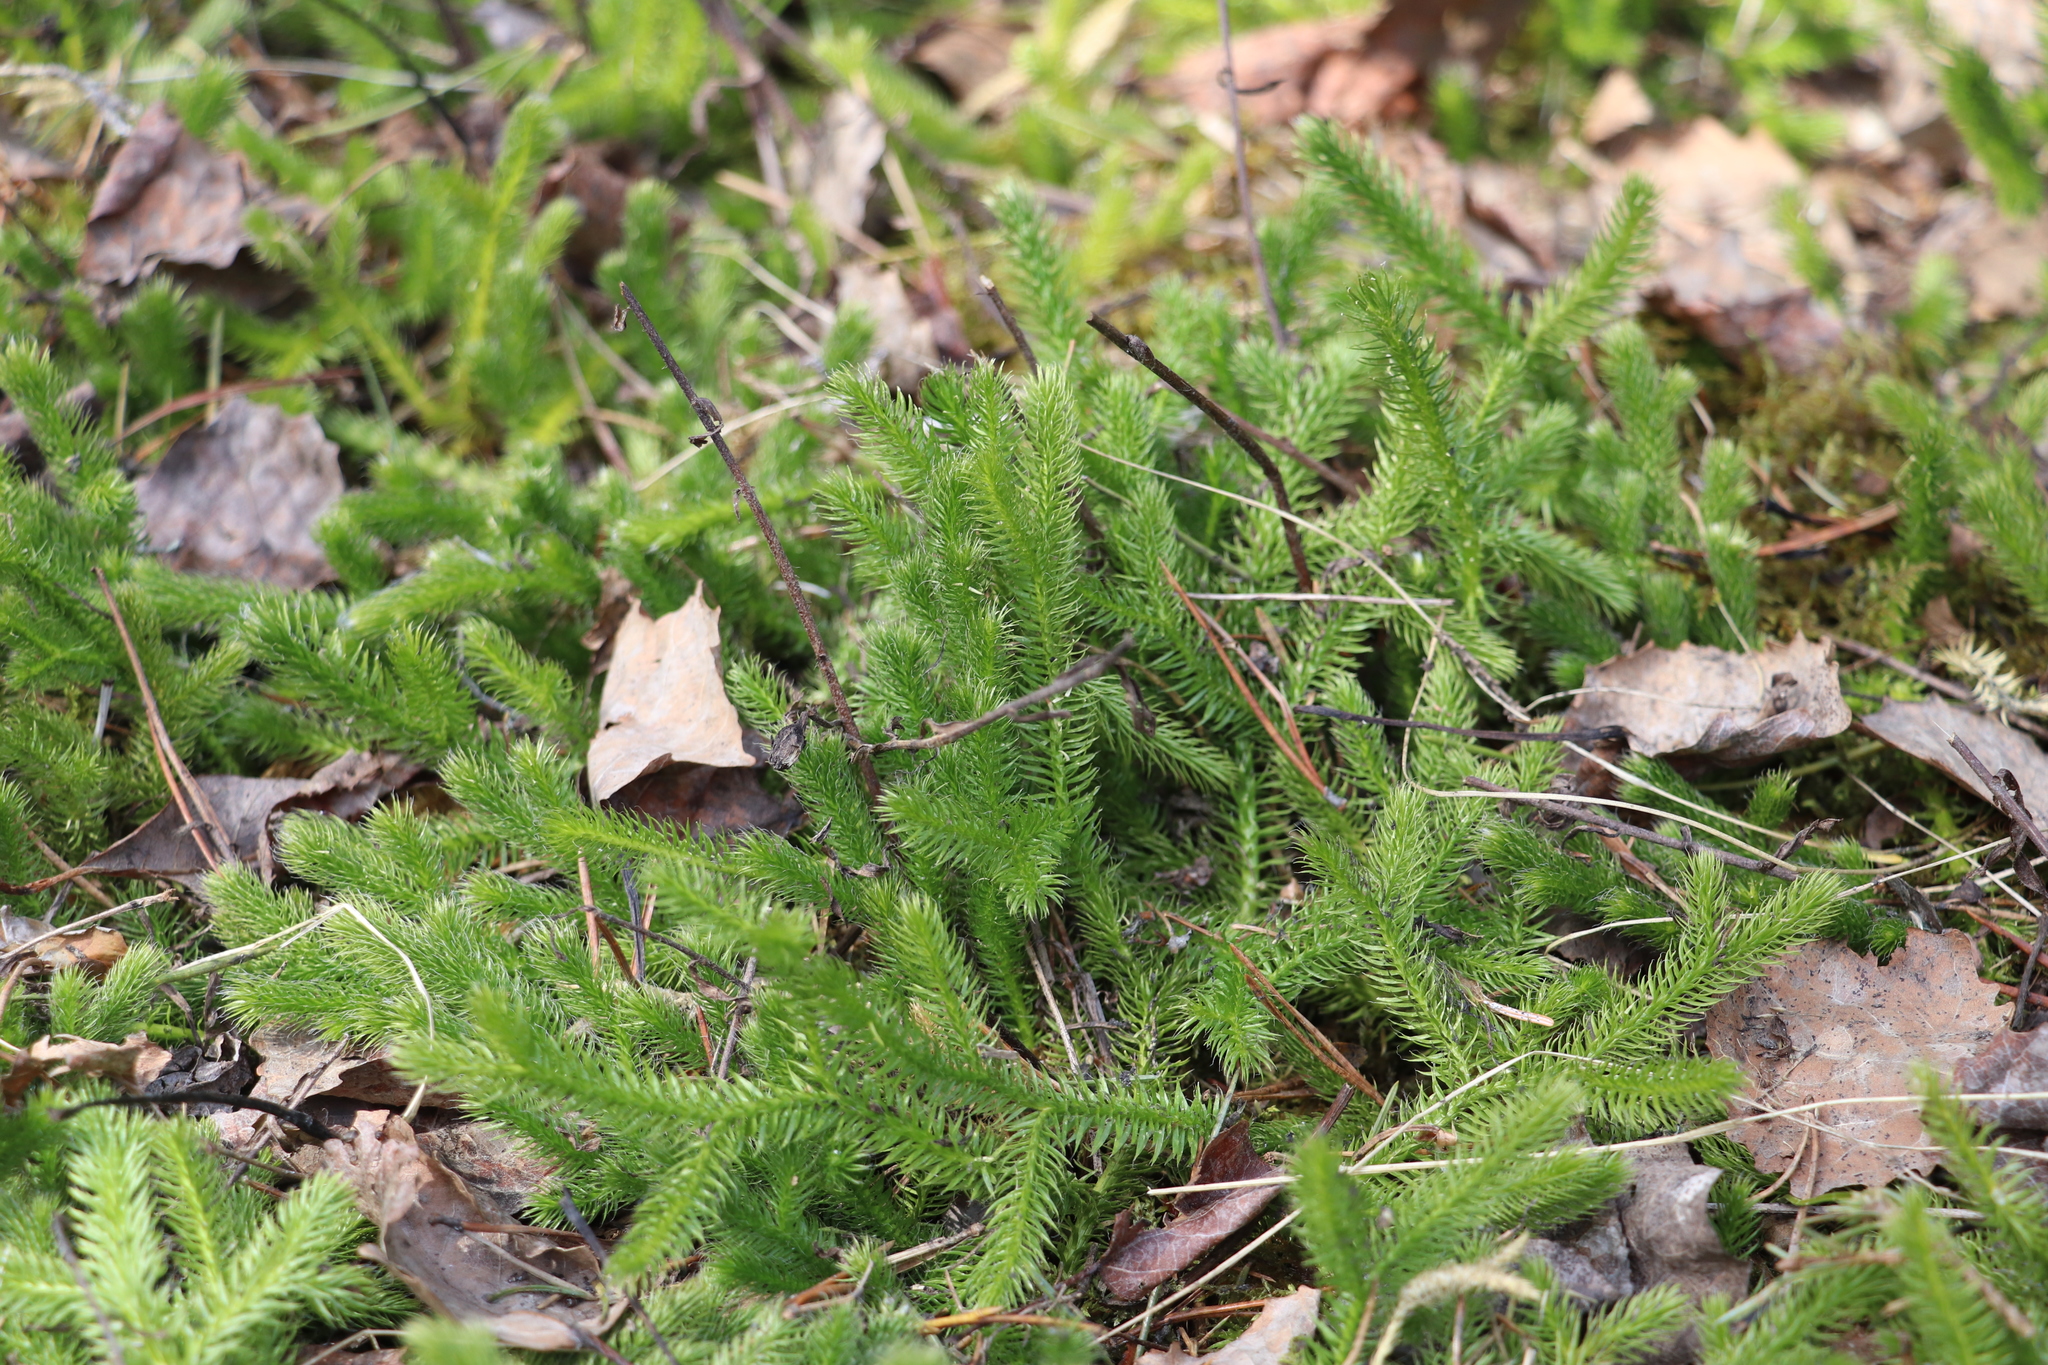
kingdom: Plantae
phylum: Tracheophyta
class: Lycopodiopsida
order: Lycopodiales
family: Lycopodiaceae
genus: Lycopodium
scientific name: Lycopodium clavatum
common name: Stag's-horn clubmoss
